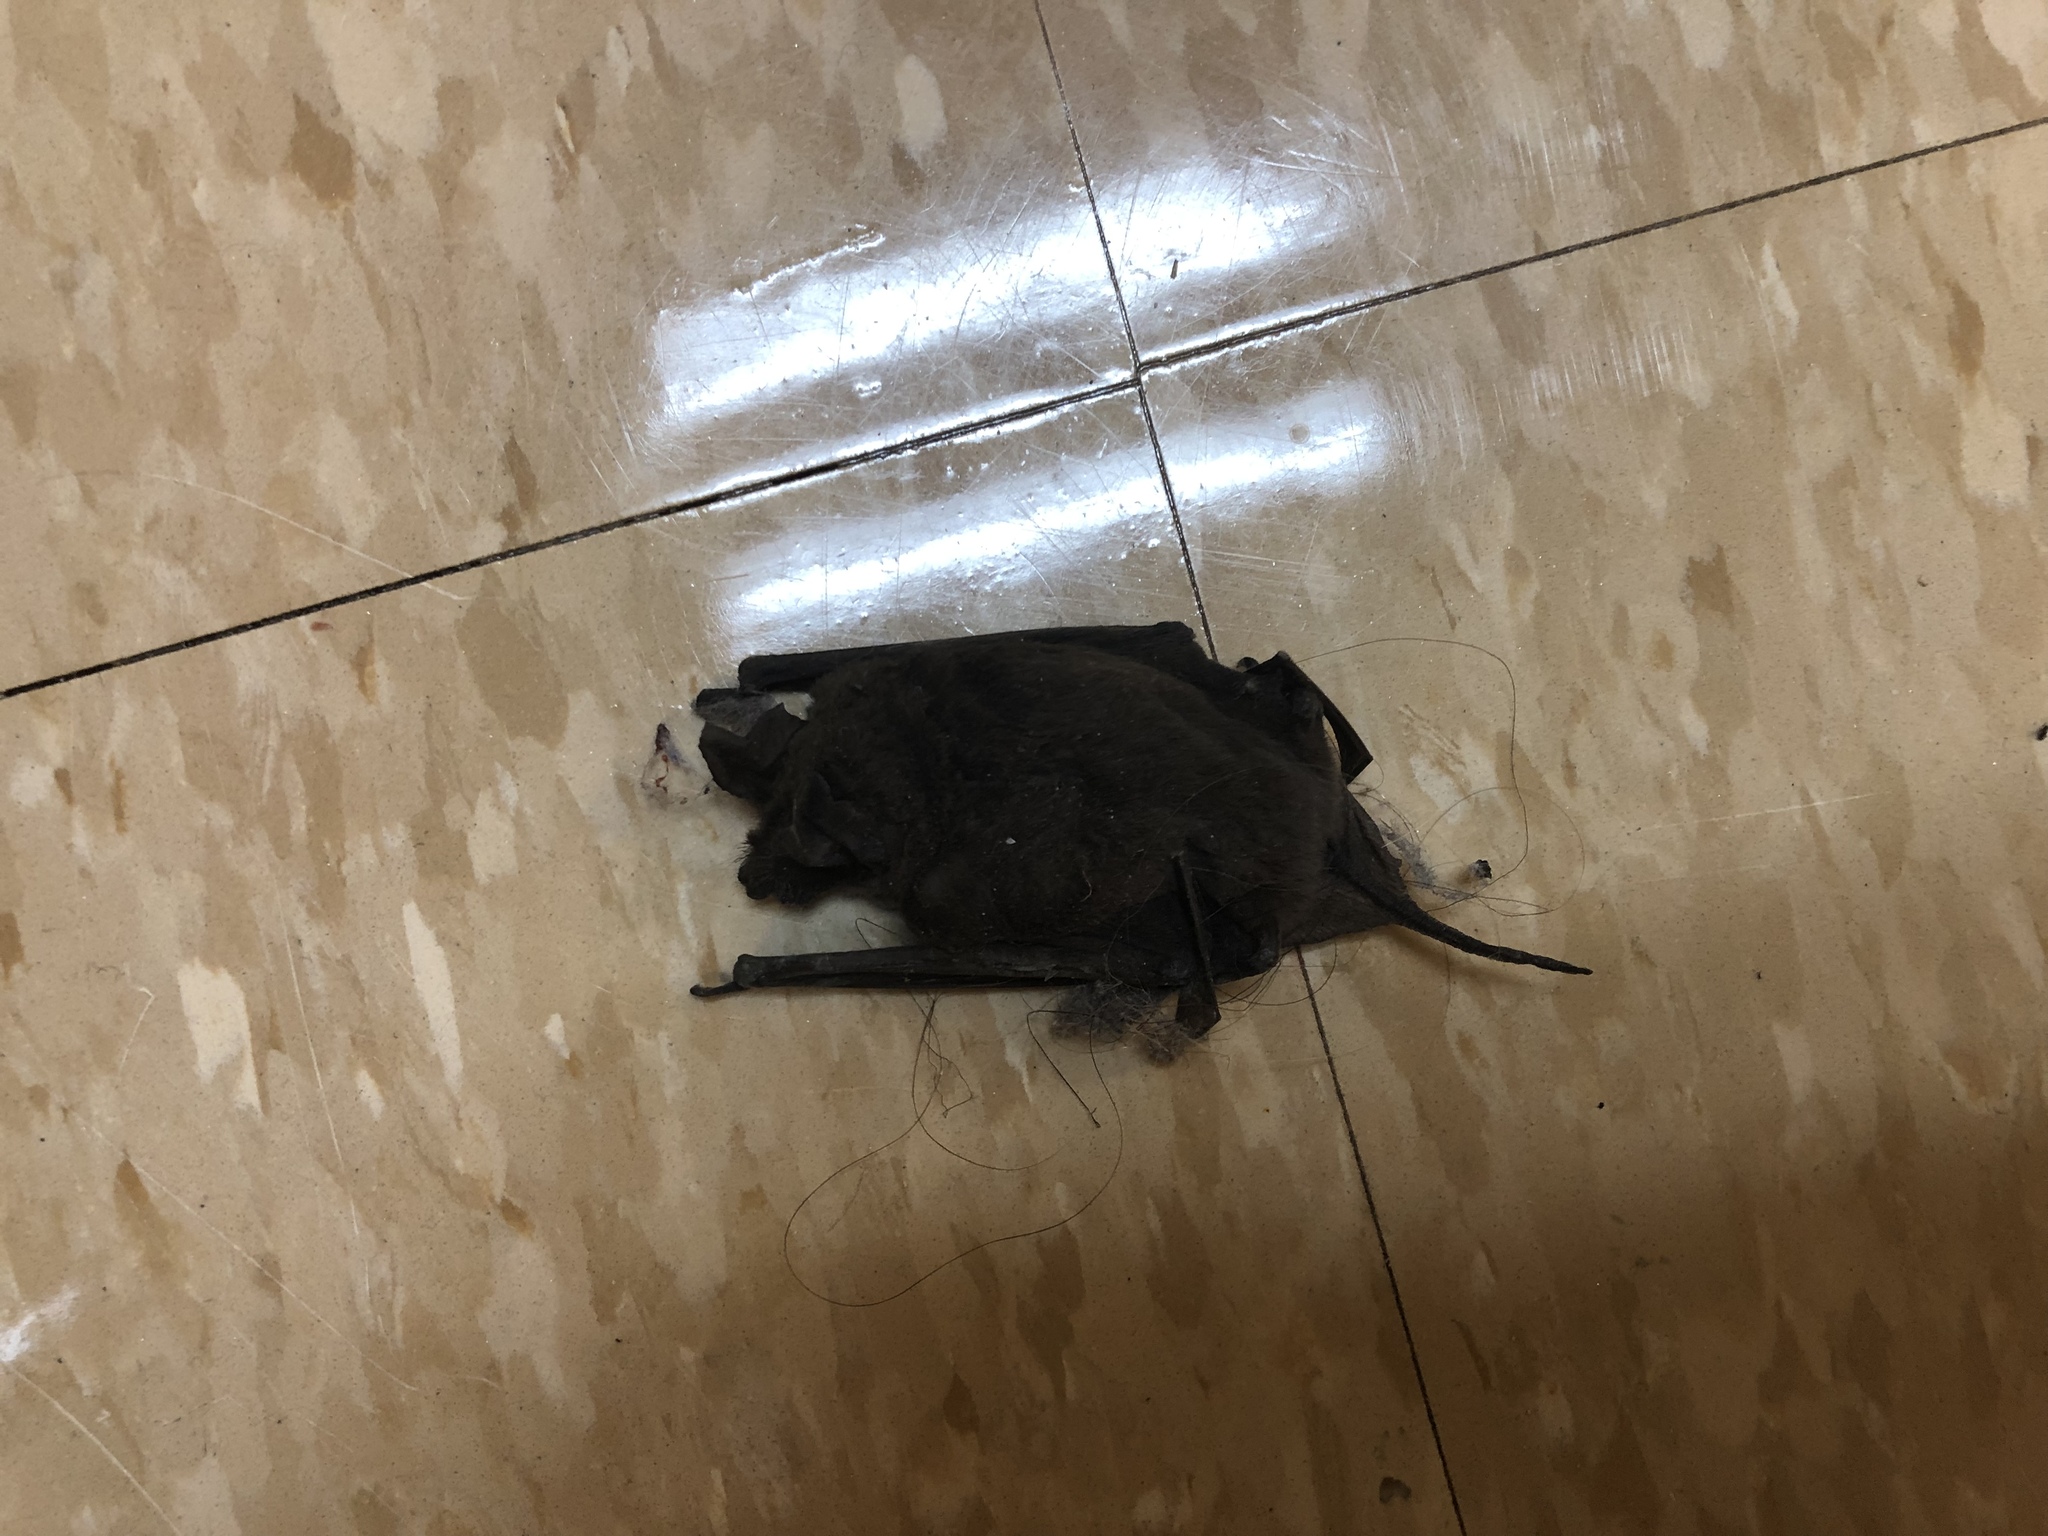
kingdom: Animalia
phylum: Chordata
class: Mammalia
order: Chiroptera
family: Molossidae
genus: Tadarida
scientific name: Tadarida brasiliensis
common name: Mexican free-tailed bat
